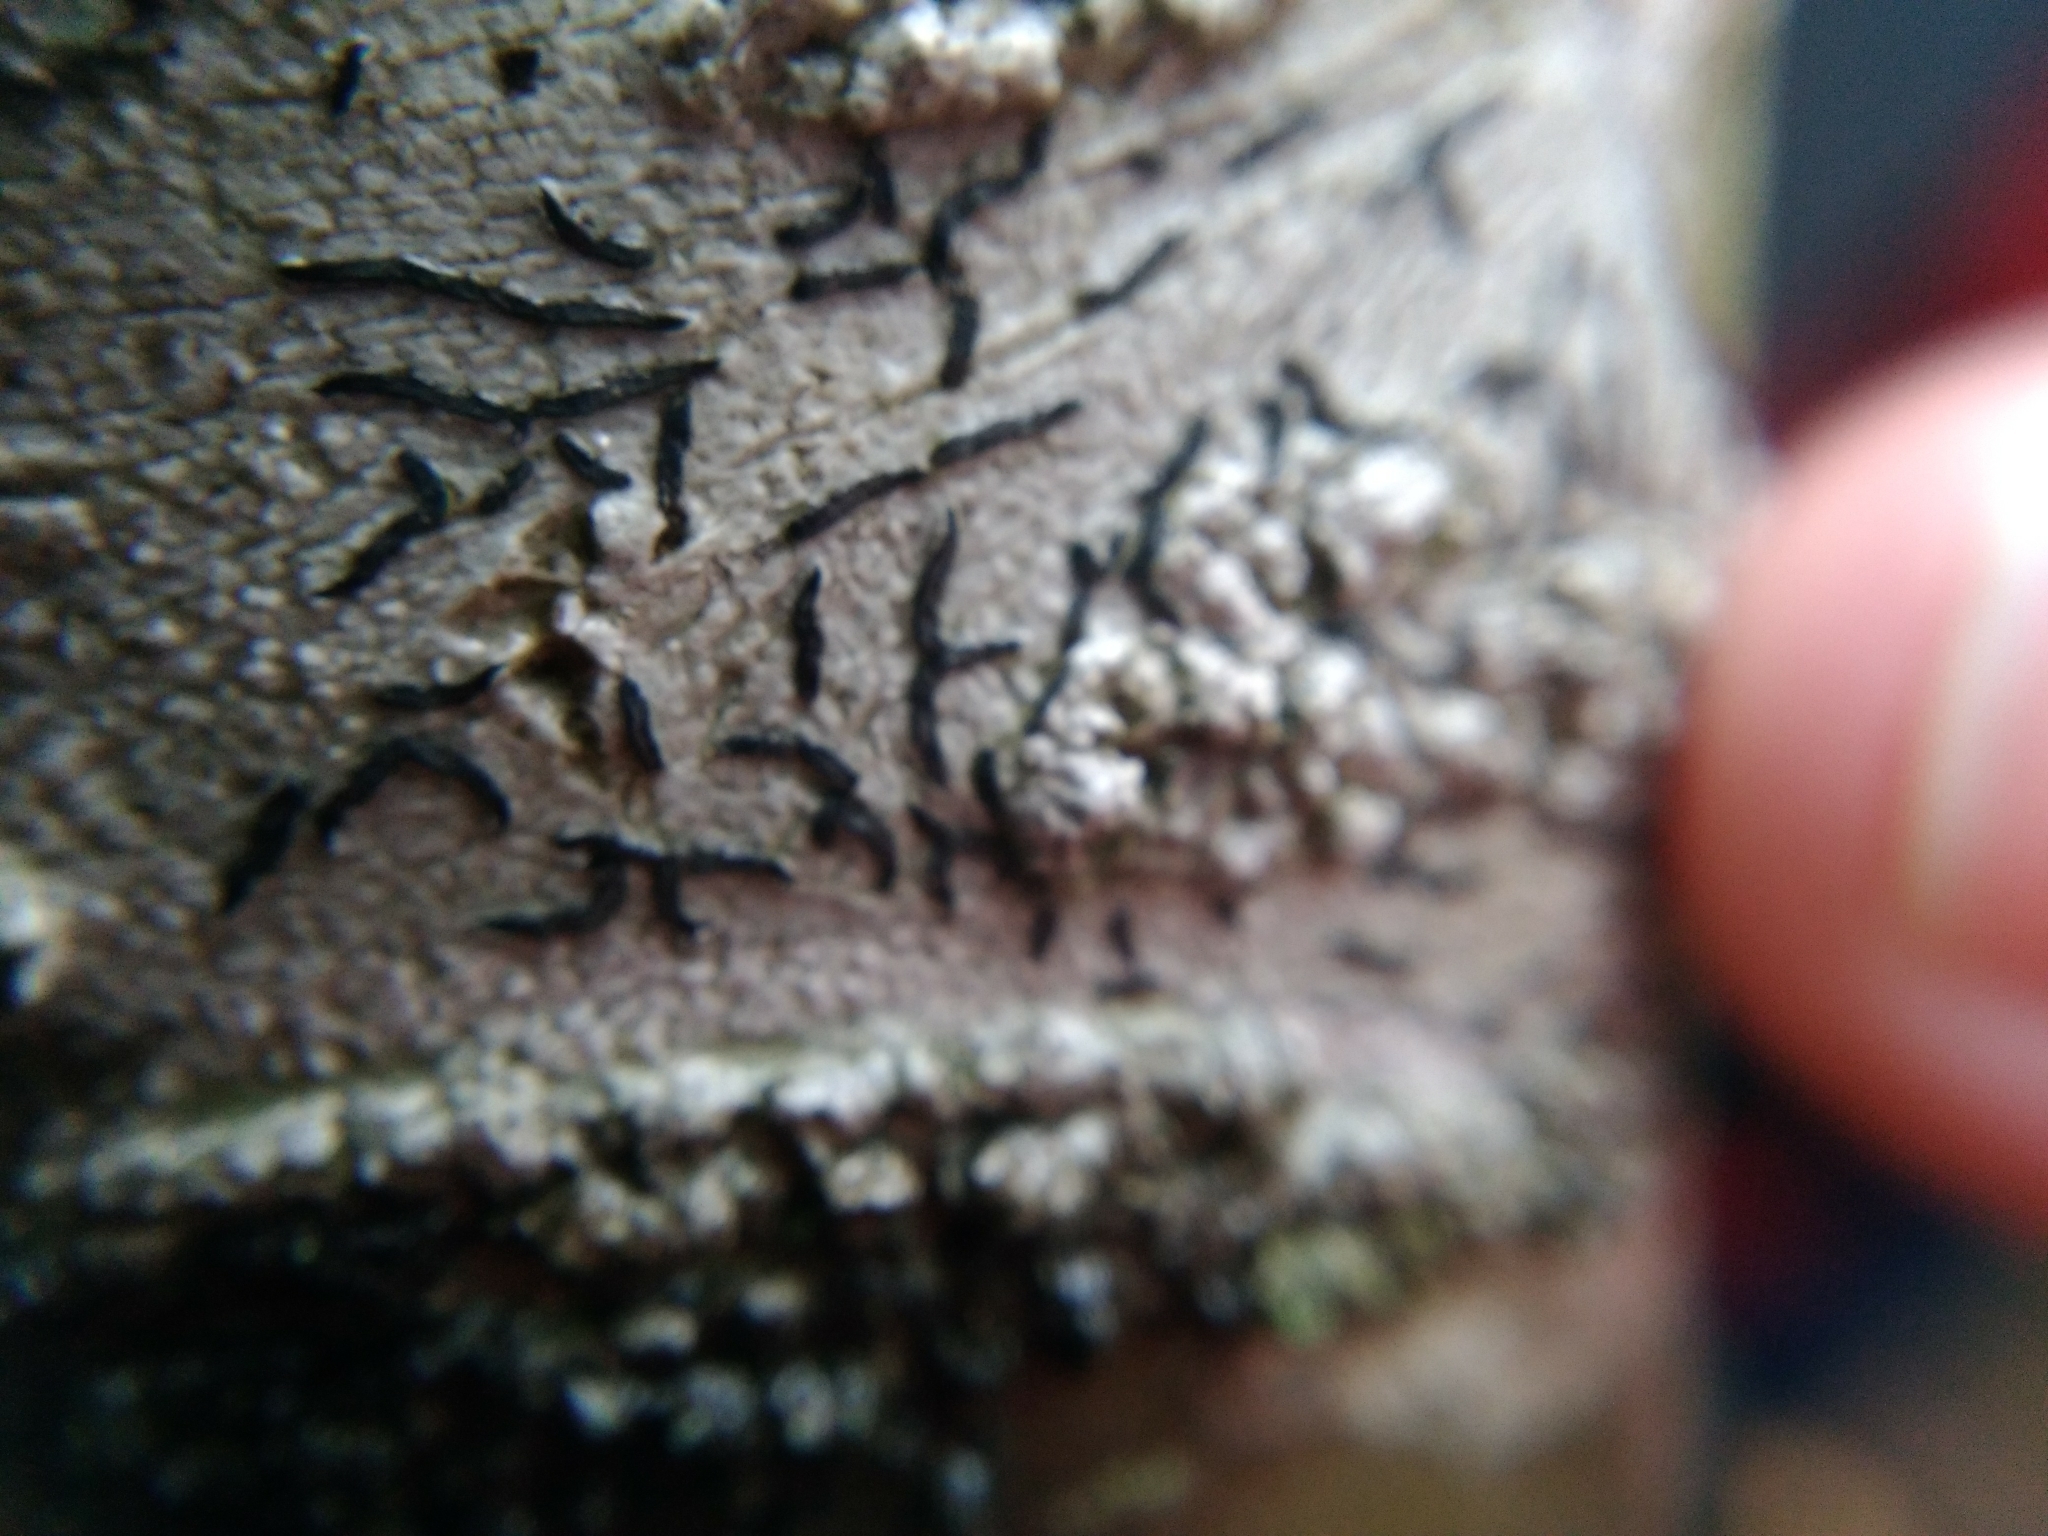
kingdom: Fungi
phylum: Ascomycota
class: Lecanoromycetes
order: Ostropales
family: Graphidaceae
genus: Graphis
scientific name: Graphis scripta
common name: Script lichen
